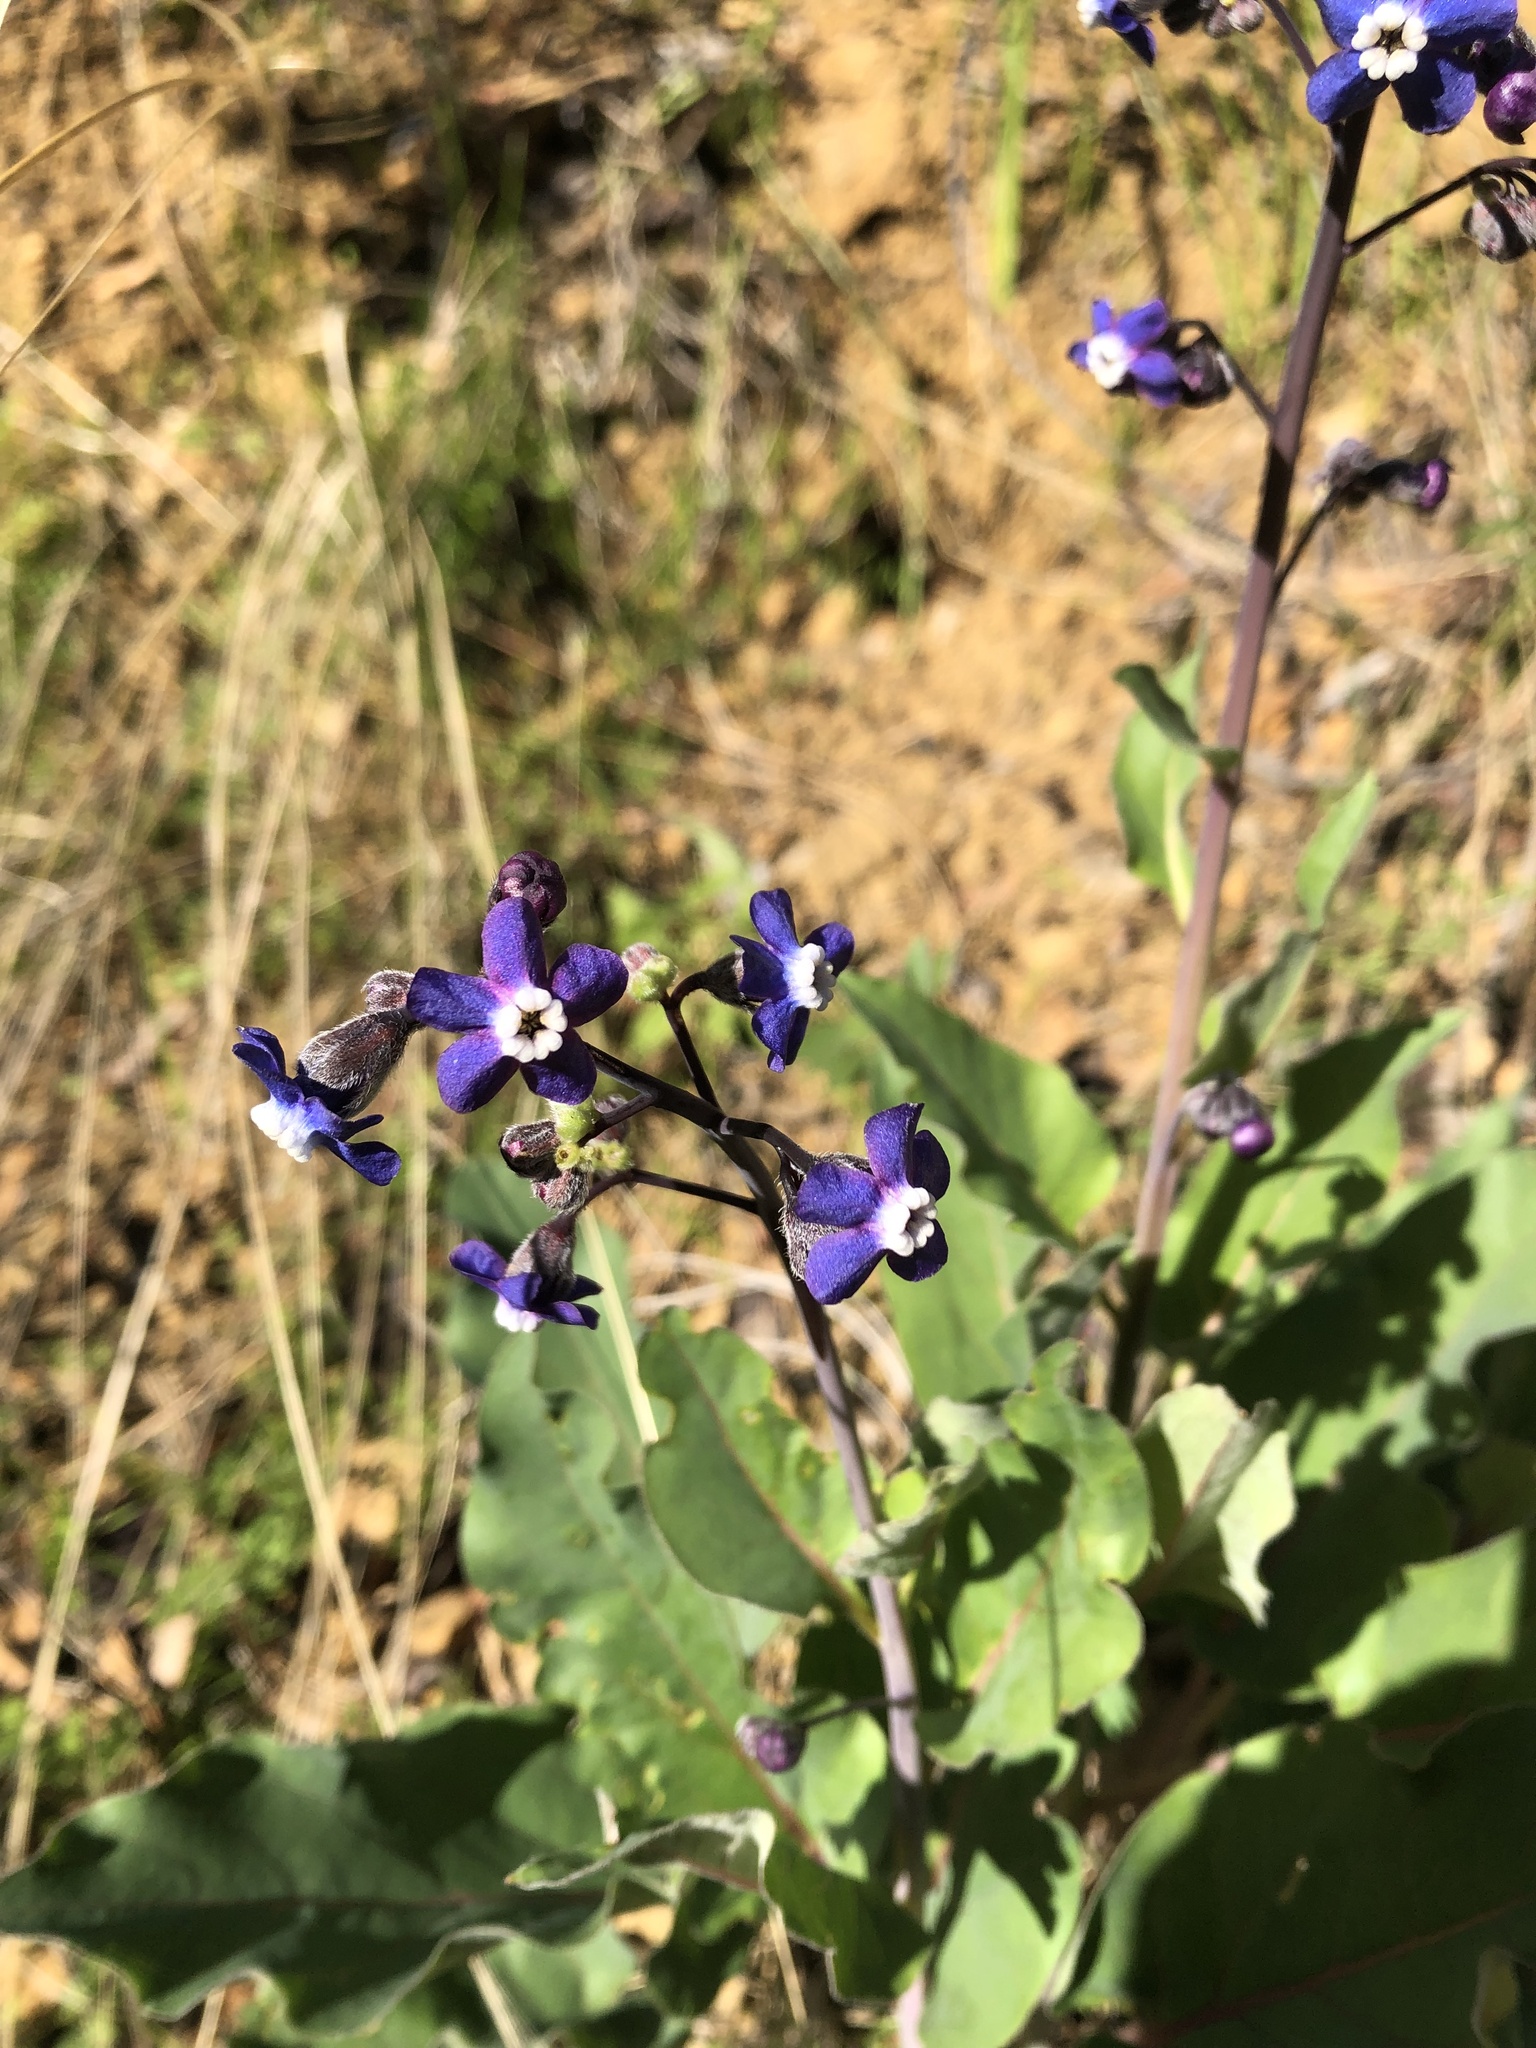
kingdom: Plantae
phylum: Tracheophyta
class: Magnoliopsida
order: Boraginales
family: Boraginaceae
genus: Adelinia
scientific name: Adelinia grande
